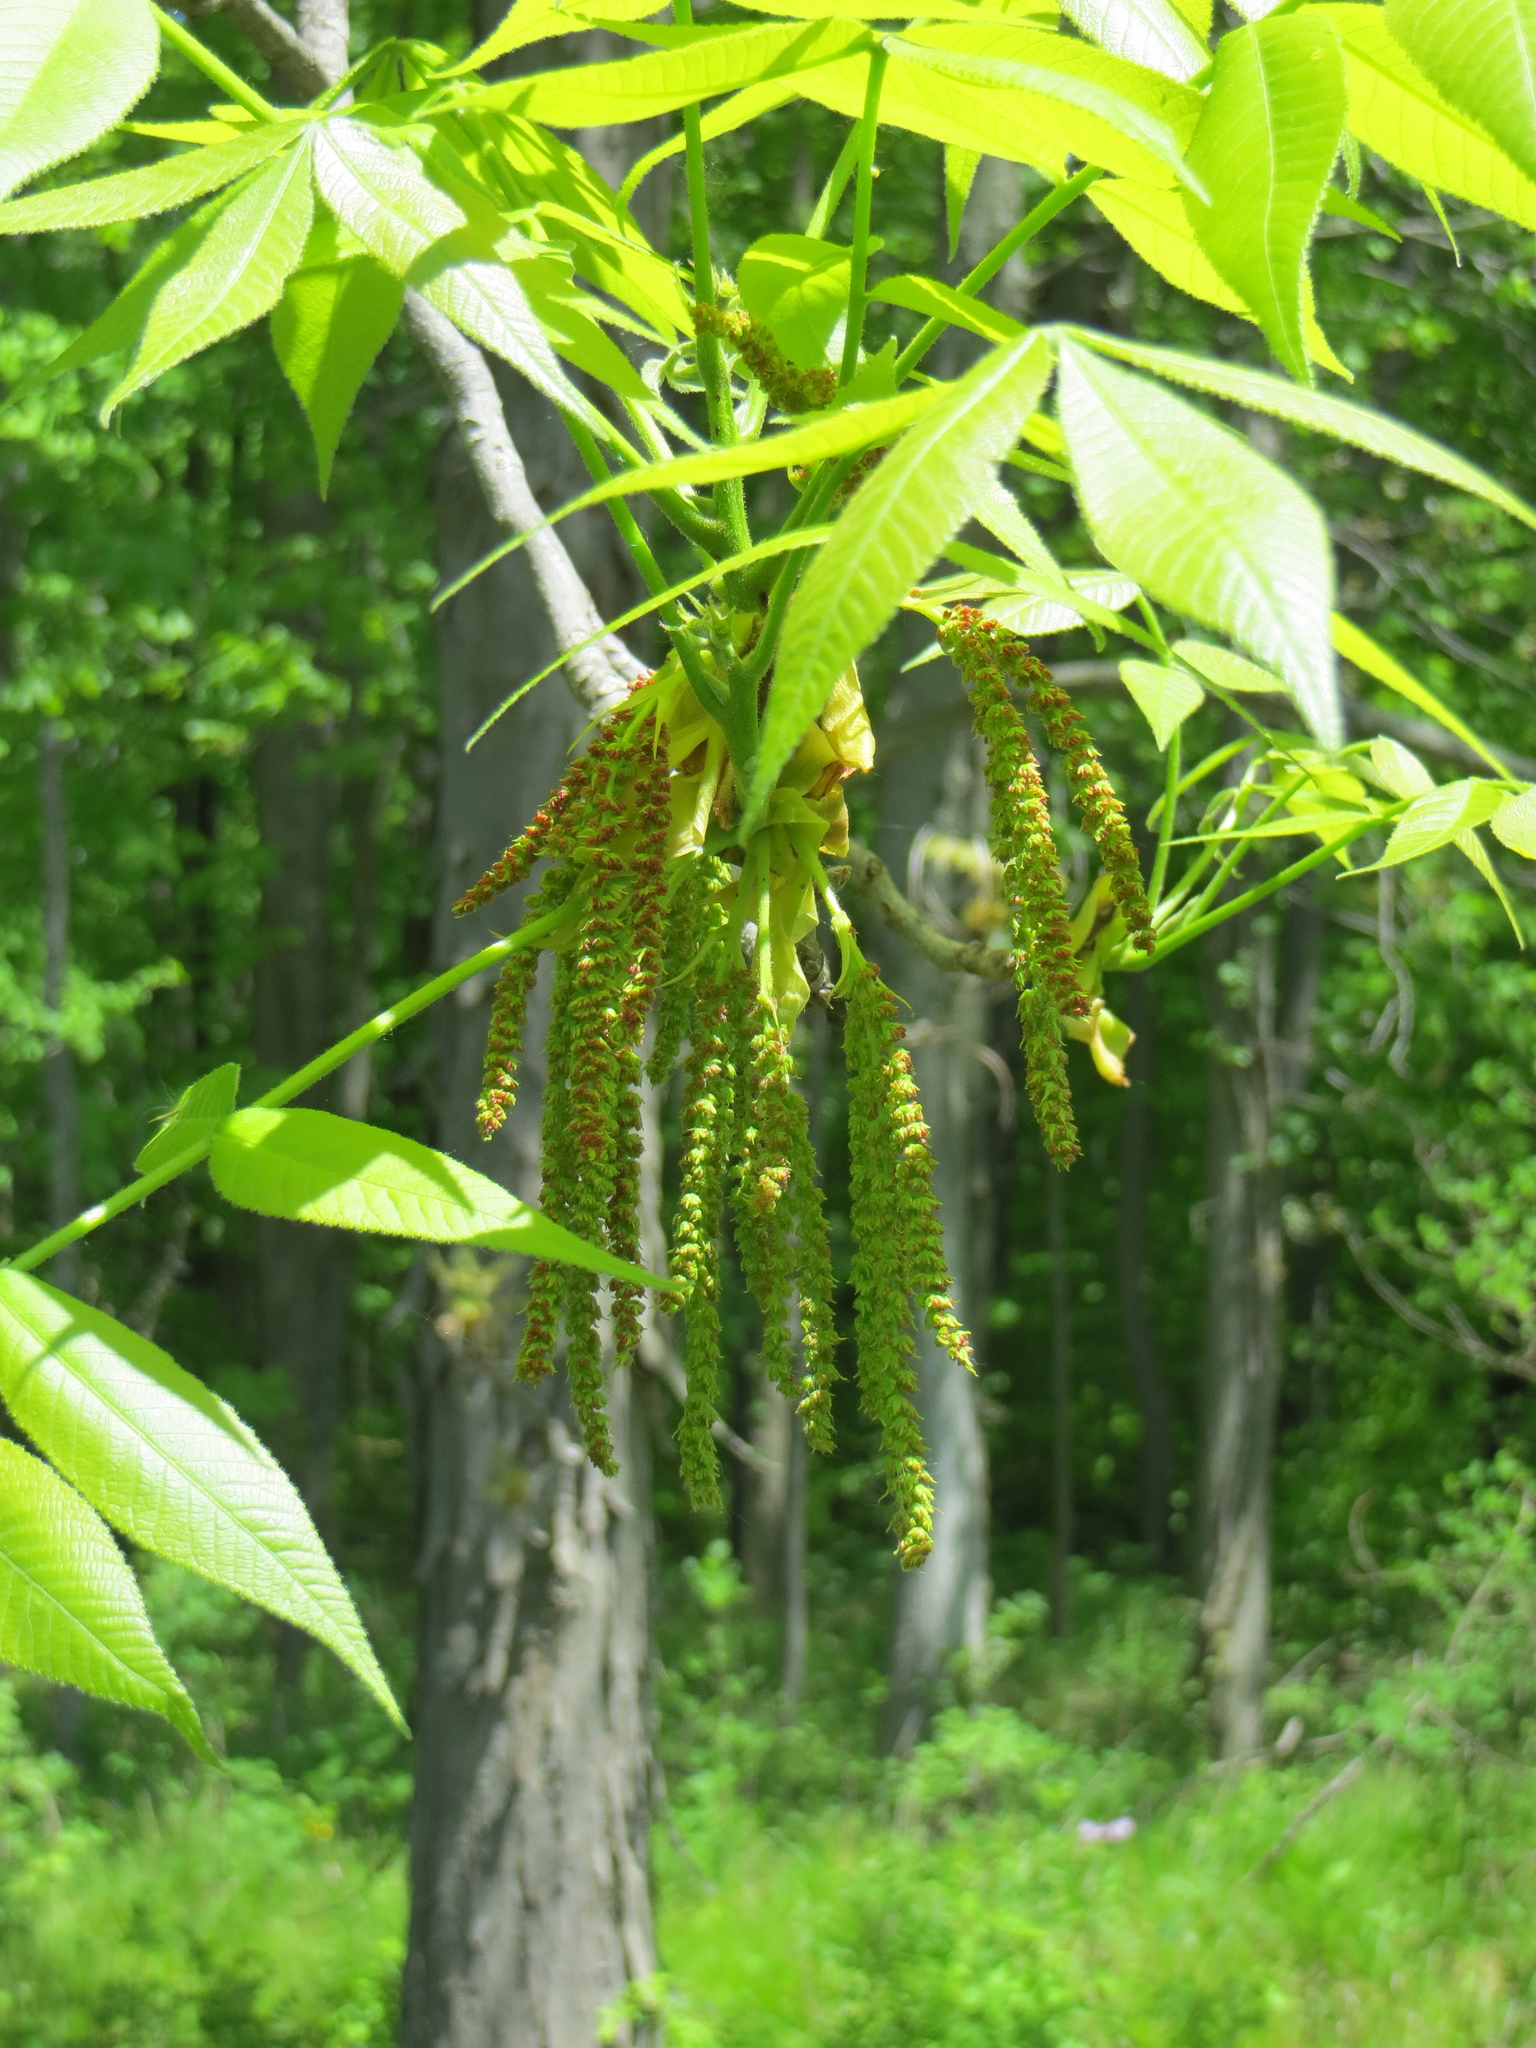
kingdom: Plantae
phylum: Tracheophyta
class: Magnoliopsida
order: Fagales
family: Juglandaceae
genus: Carya
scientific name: Carya ovata
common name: Shagbark hickory
